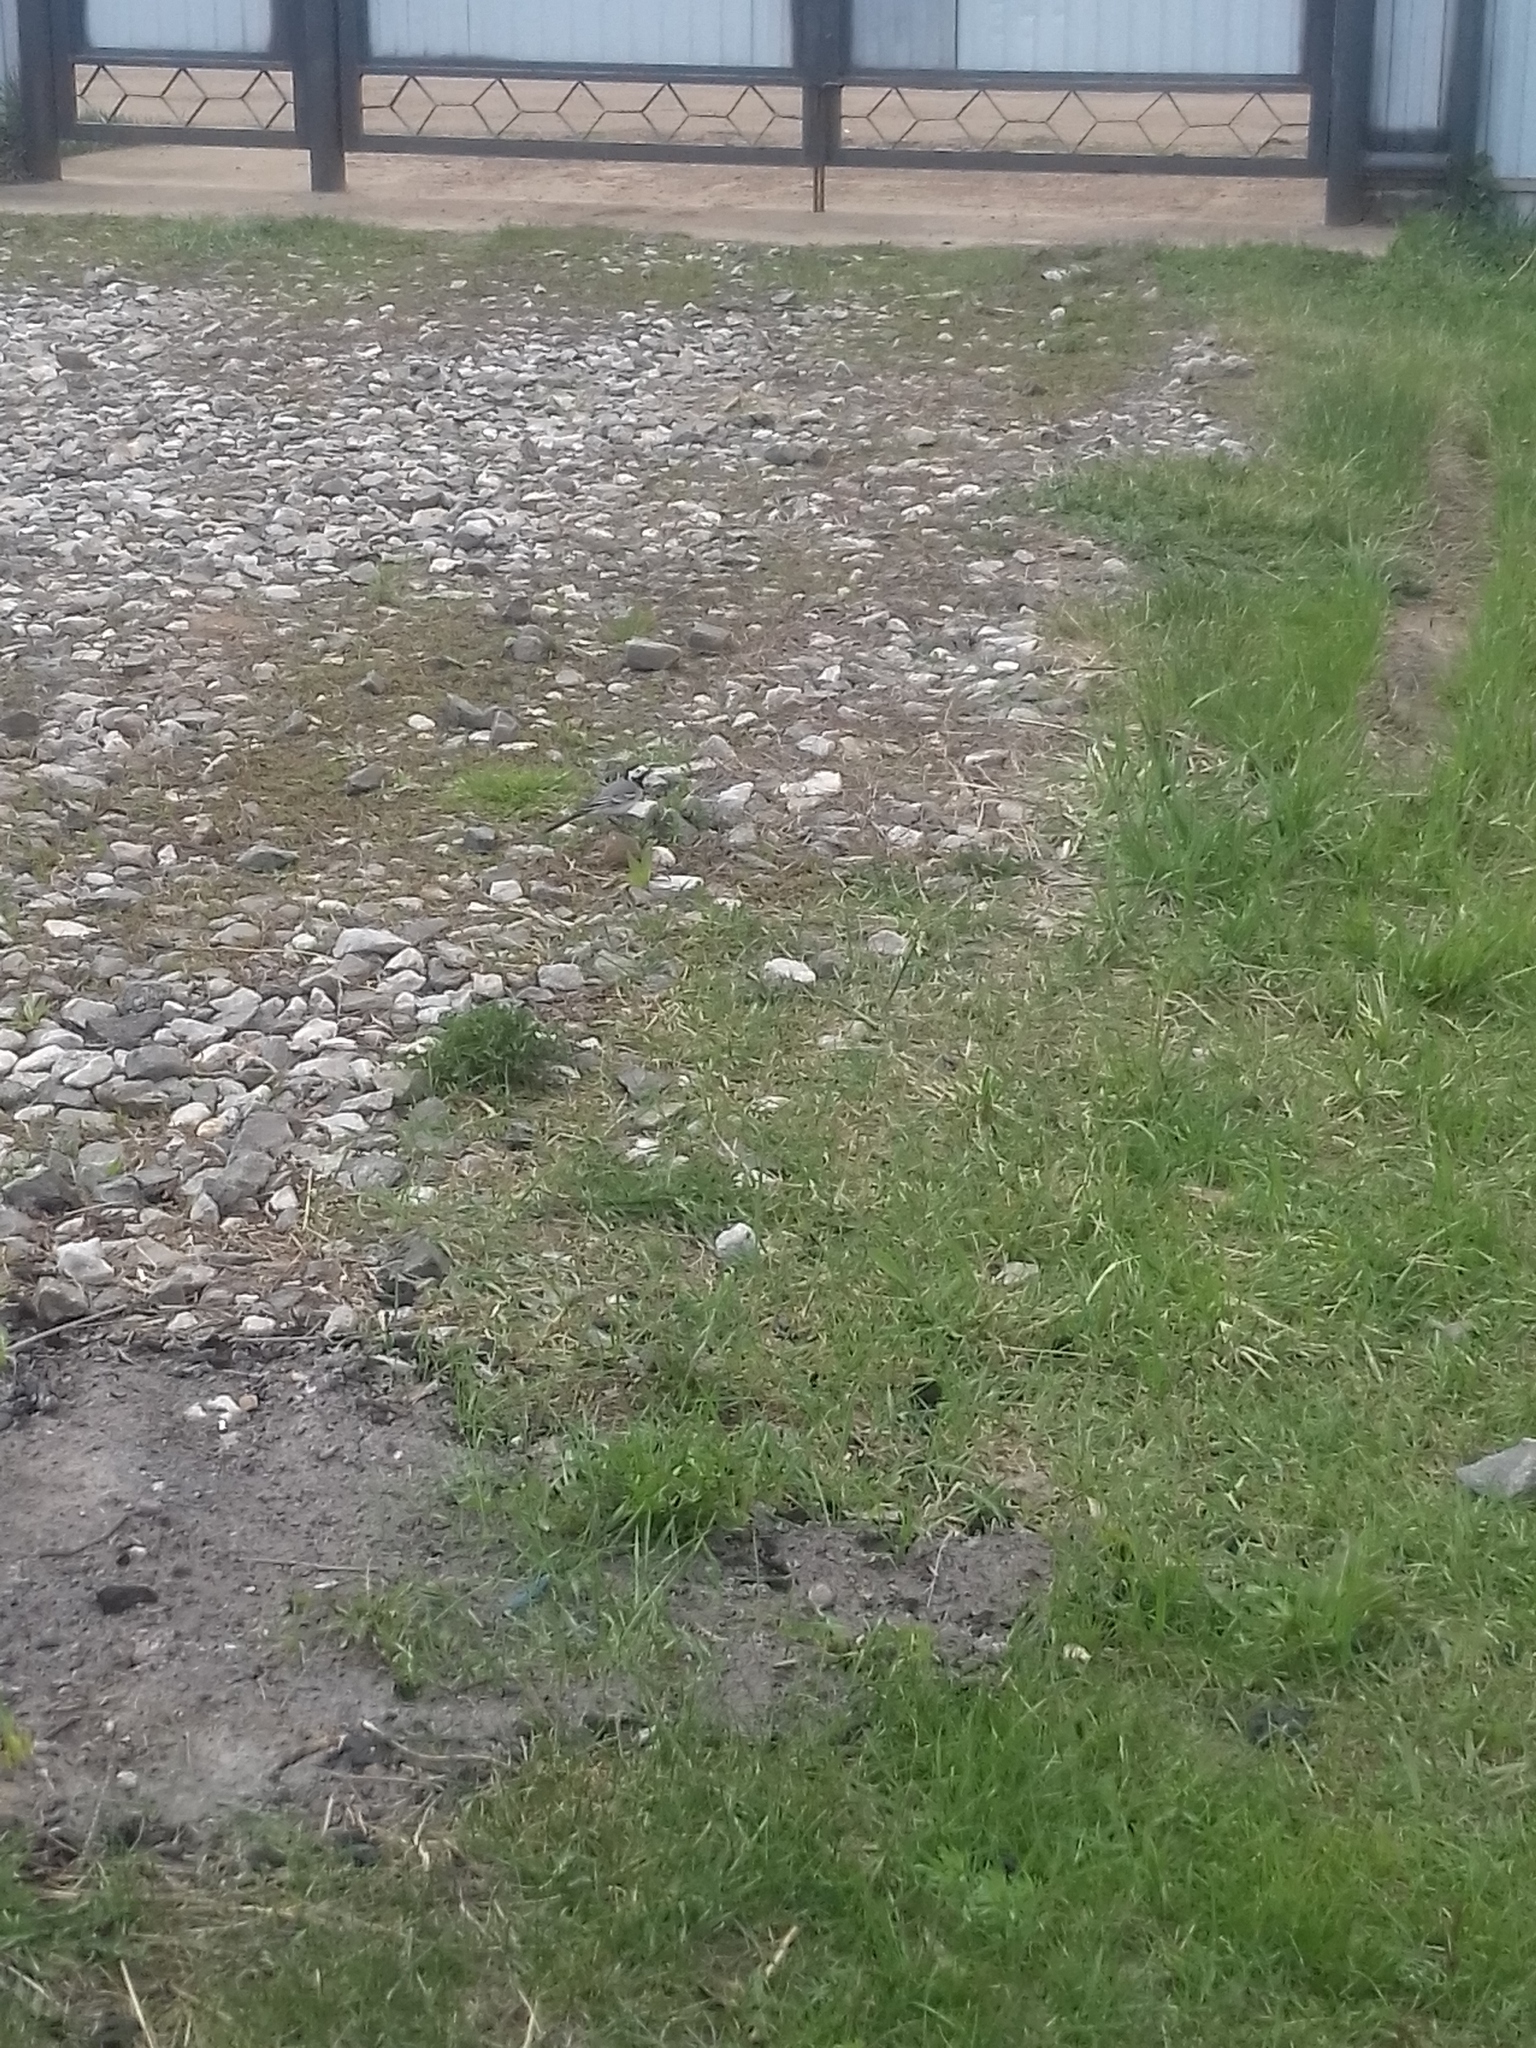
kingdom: Animalia
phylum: Chordata
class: Aves
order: Passeriformes
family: Motacillidae
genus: Motacilla
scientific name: Motacilla alba
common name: White wagtail
